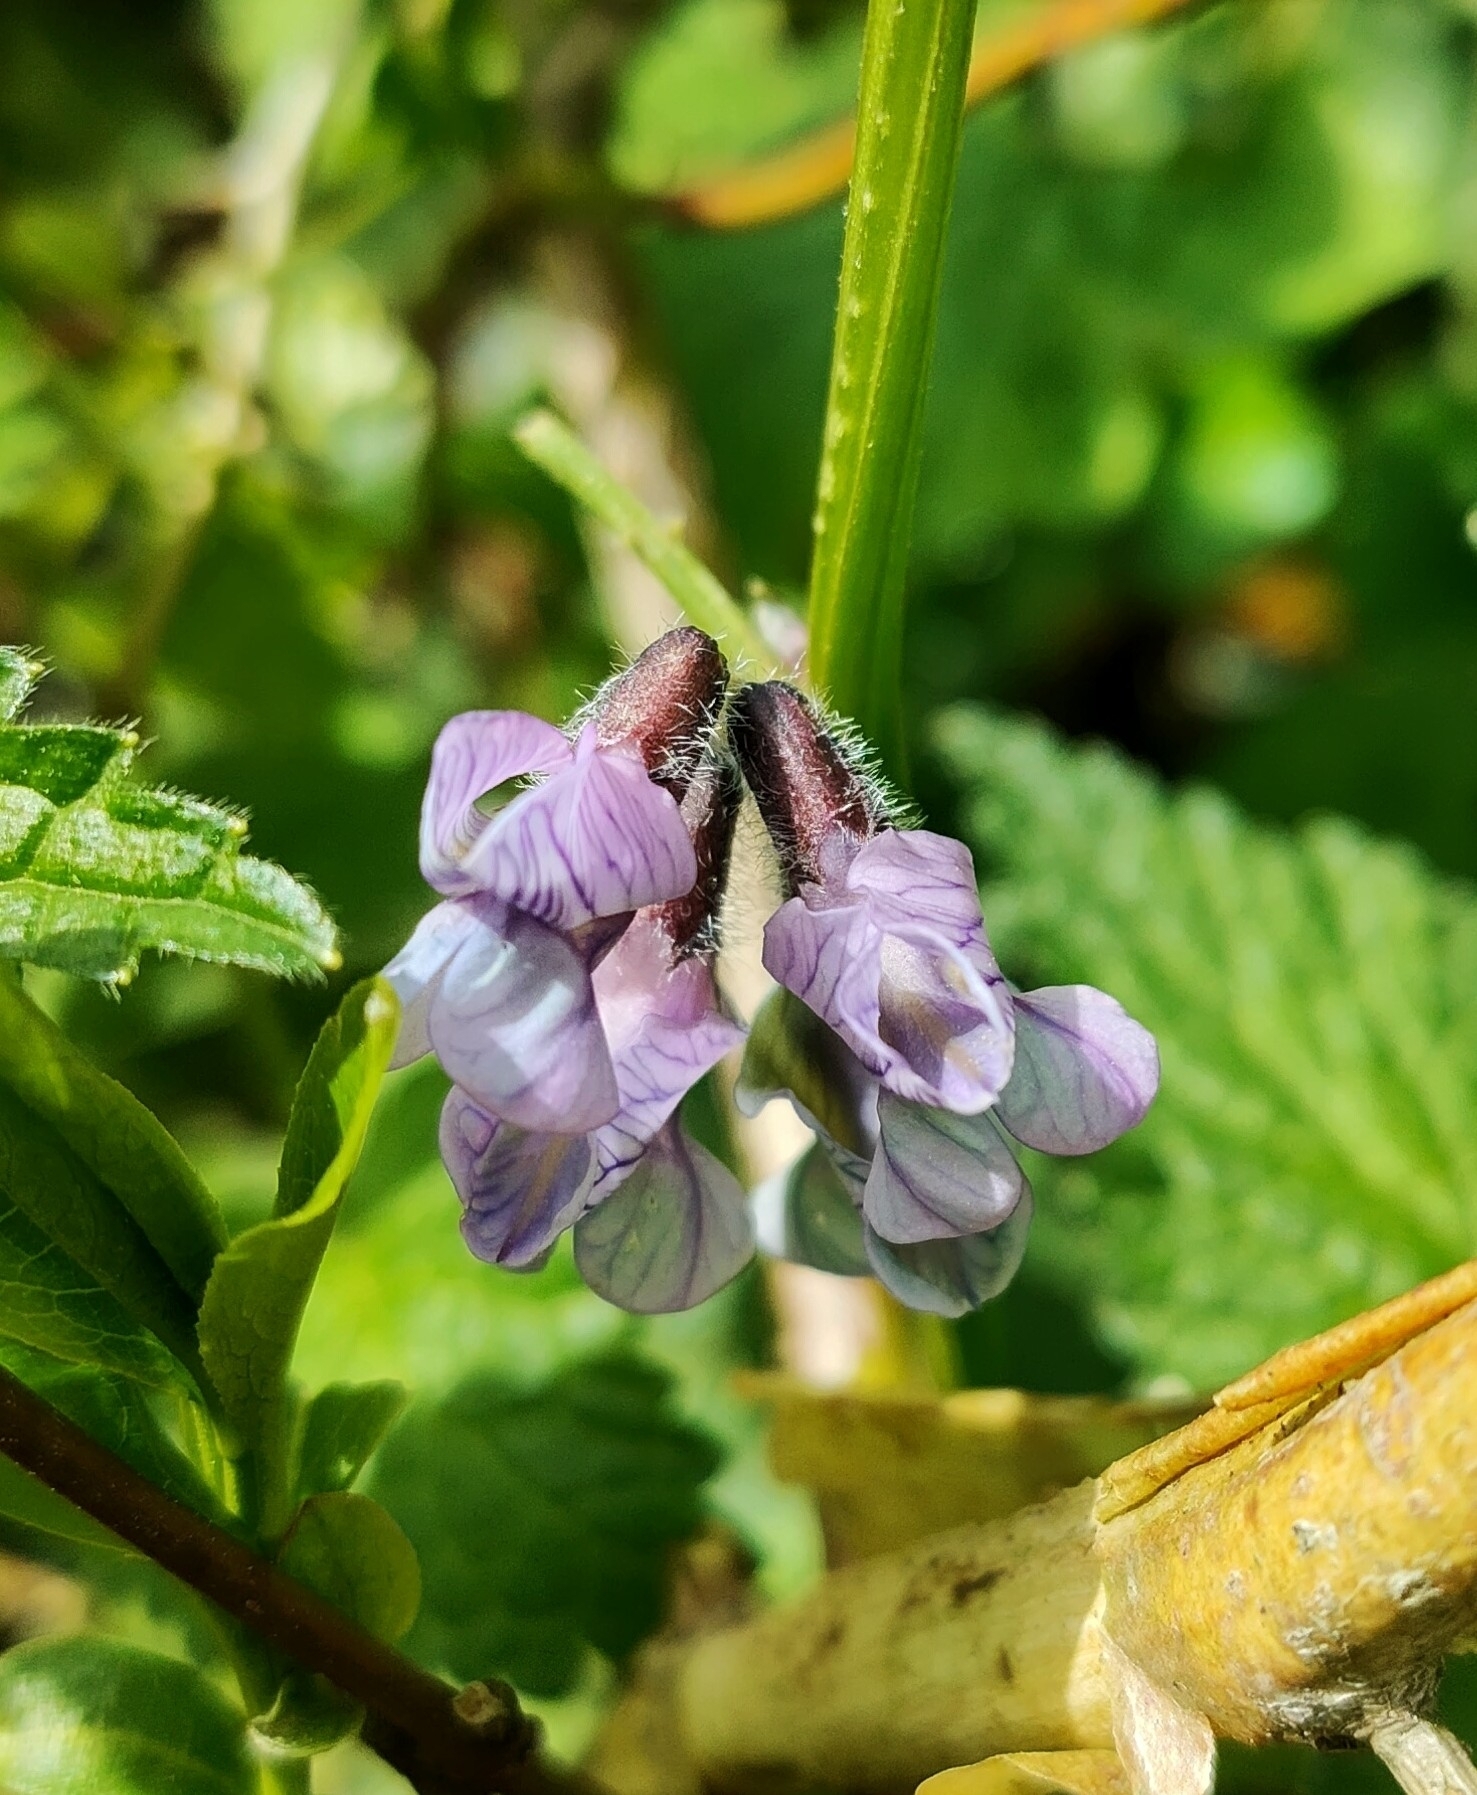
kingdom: Plantae
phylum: Tracheophyta
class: Magnoliopsida
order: Fabales
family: Fabaceae
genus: Vicia
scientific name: Vicia sepium
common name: Bush vetch
